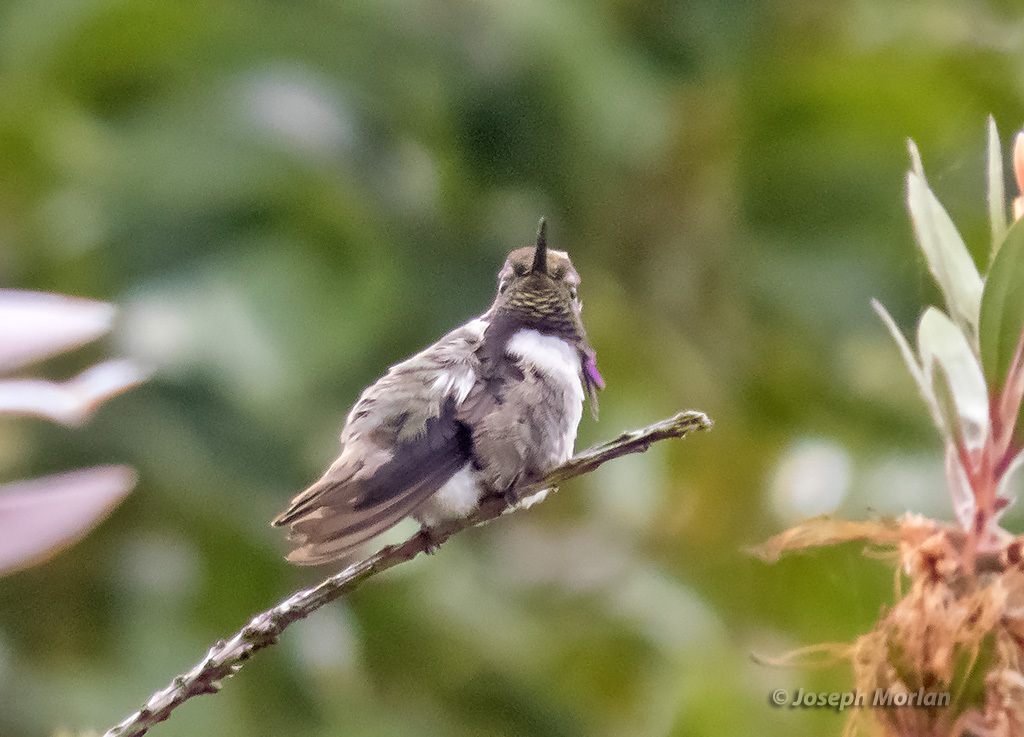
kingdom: Animalia
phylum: Chordata
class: Aves
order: Apodiformes
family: Trochilidae
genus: Calypte
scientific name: Calypte costae
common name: Costa's hummingbird
